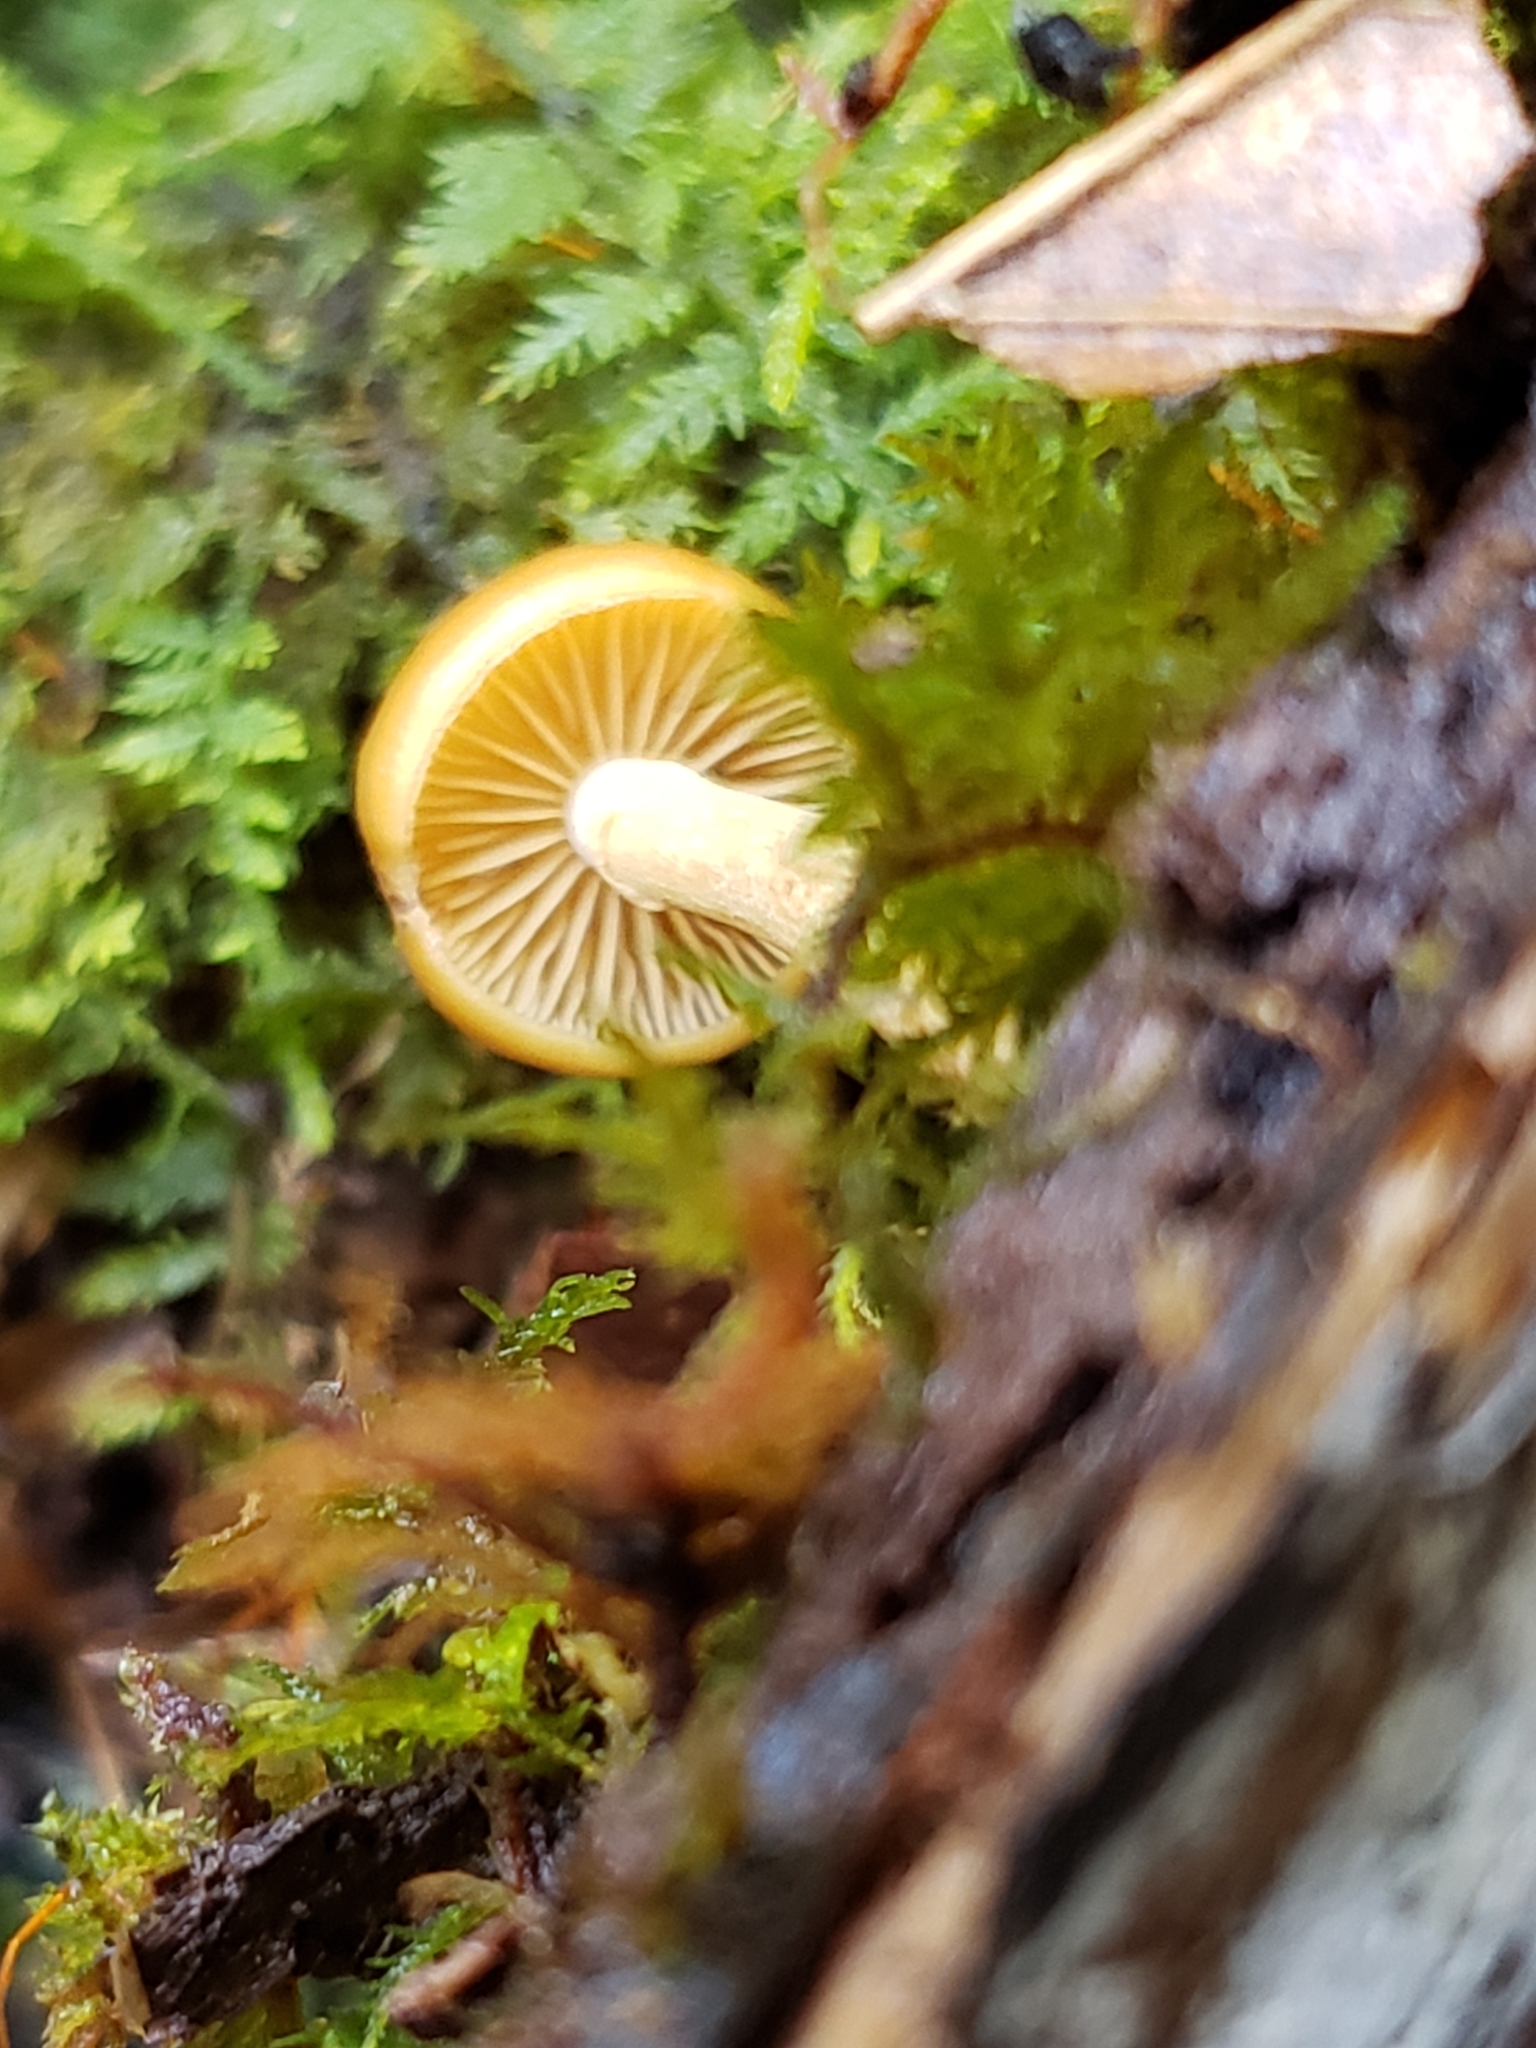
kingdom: Fungi
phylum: Basidiomycota
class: Agaricomycetes
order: Agaricales
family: Hymenogastraceae
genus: Galerina
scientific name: Galerina marginata
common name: Funeral bell
